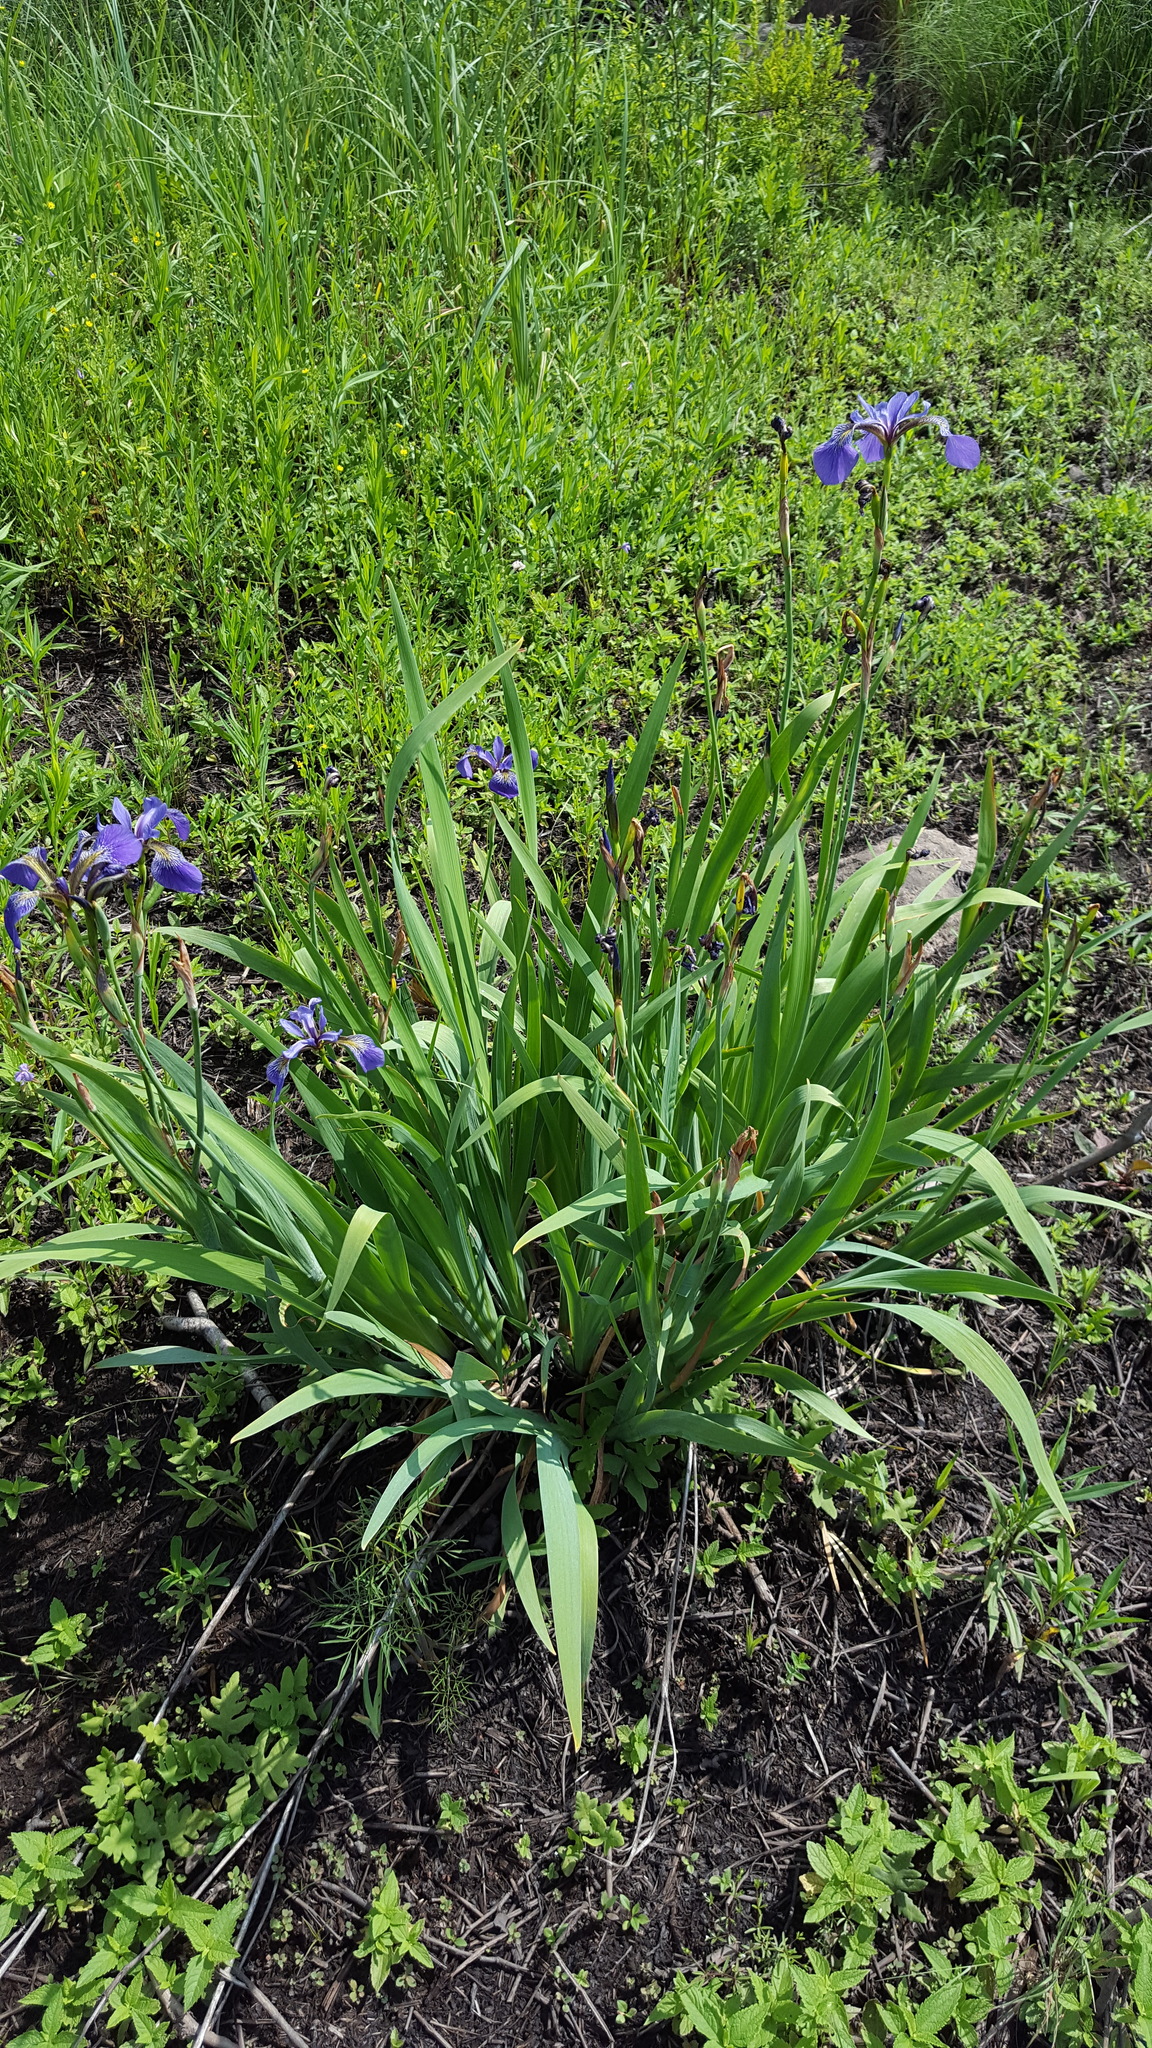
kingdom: Plantae
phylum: Tracheophyta
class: Liliopsida
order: Asparagales
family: Iridaceae
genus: Iris
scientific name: Iris versicolor
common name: Purple iris
